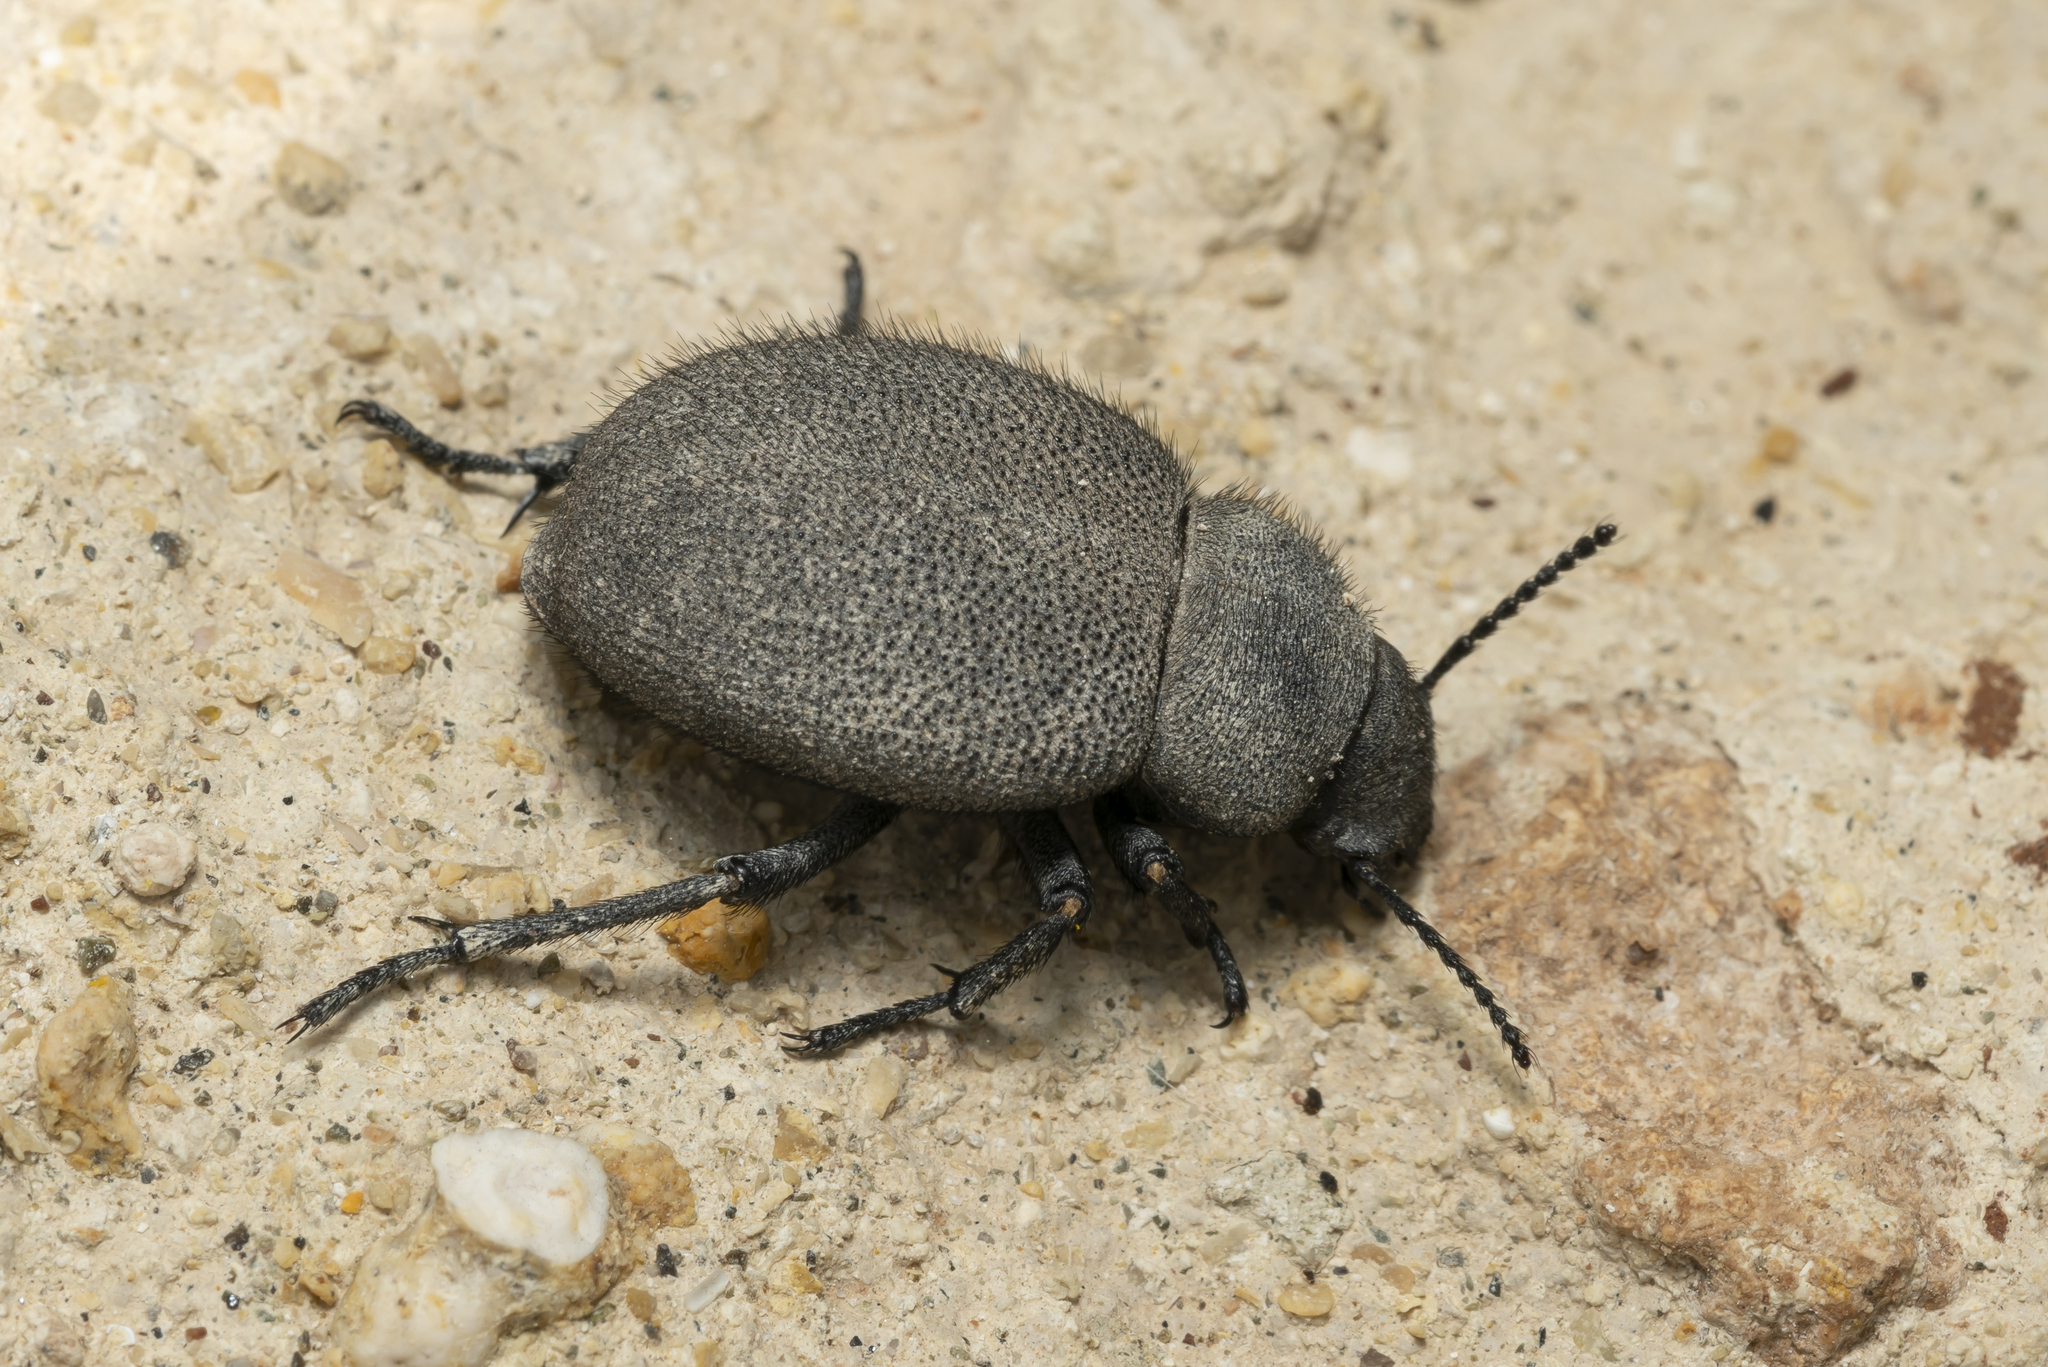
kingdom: Animalia
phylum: Arthropoda
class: Insecta
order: Coleoptera
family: Tenebrionidae
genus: Pachyscelis
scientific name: Pachyscelis villosa
